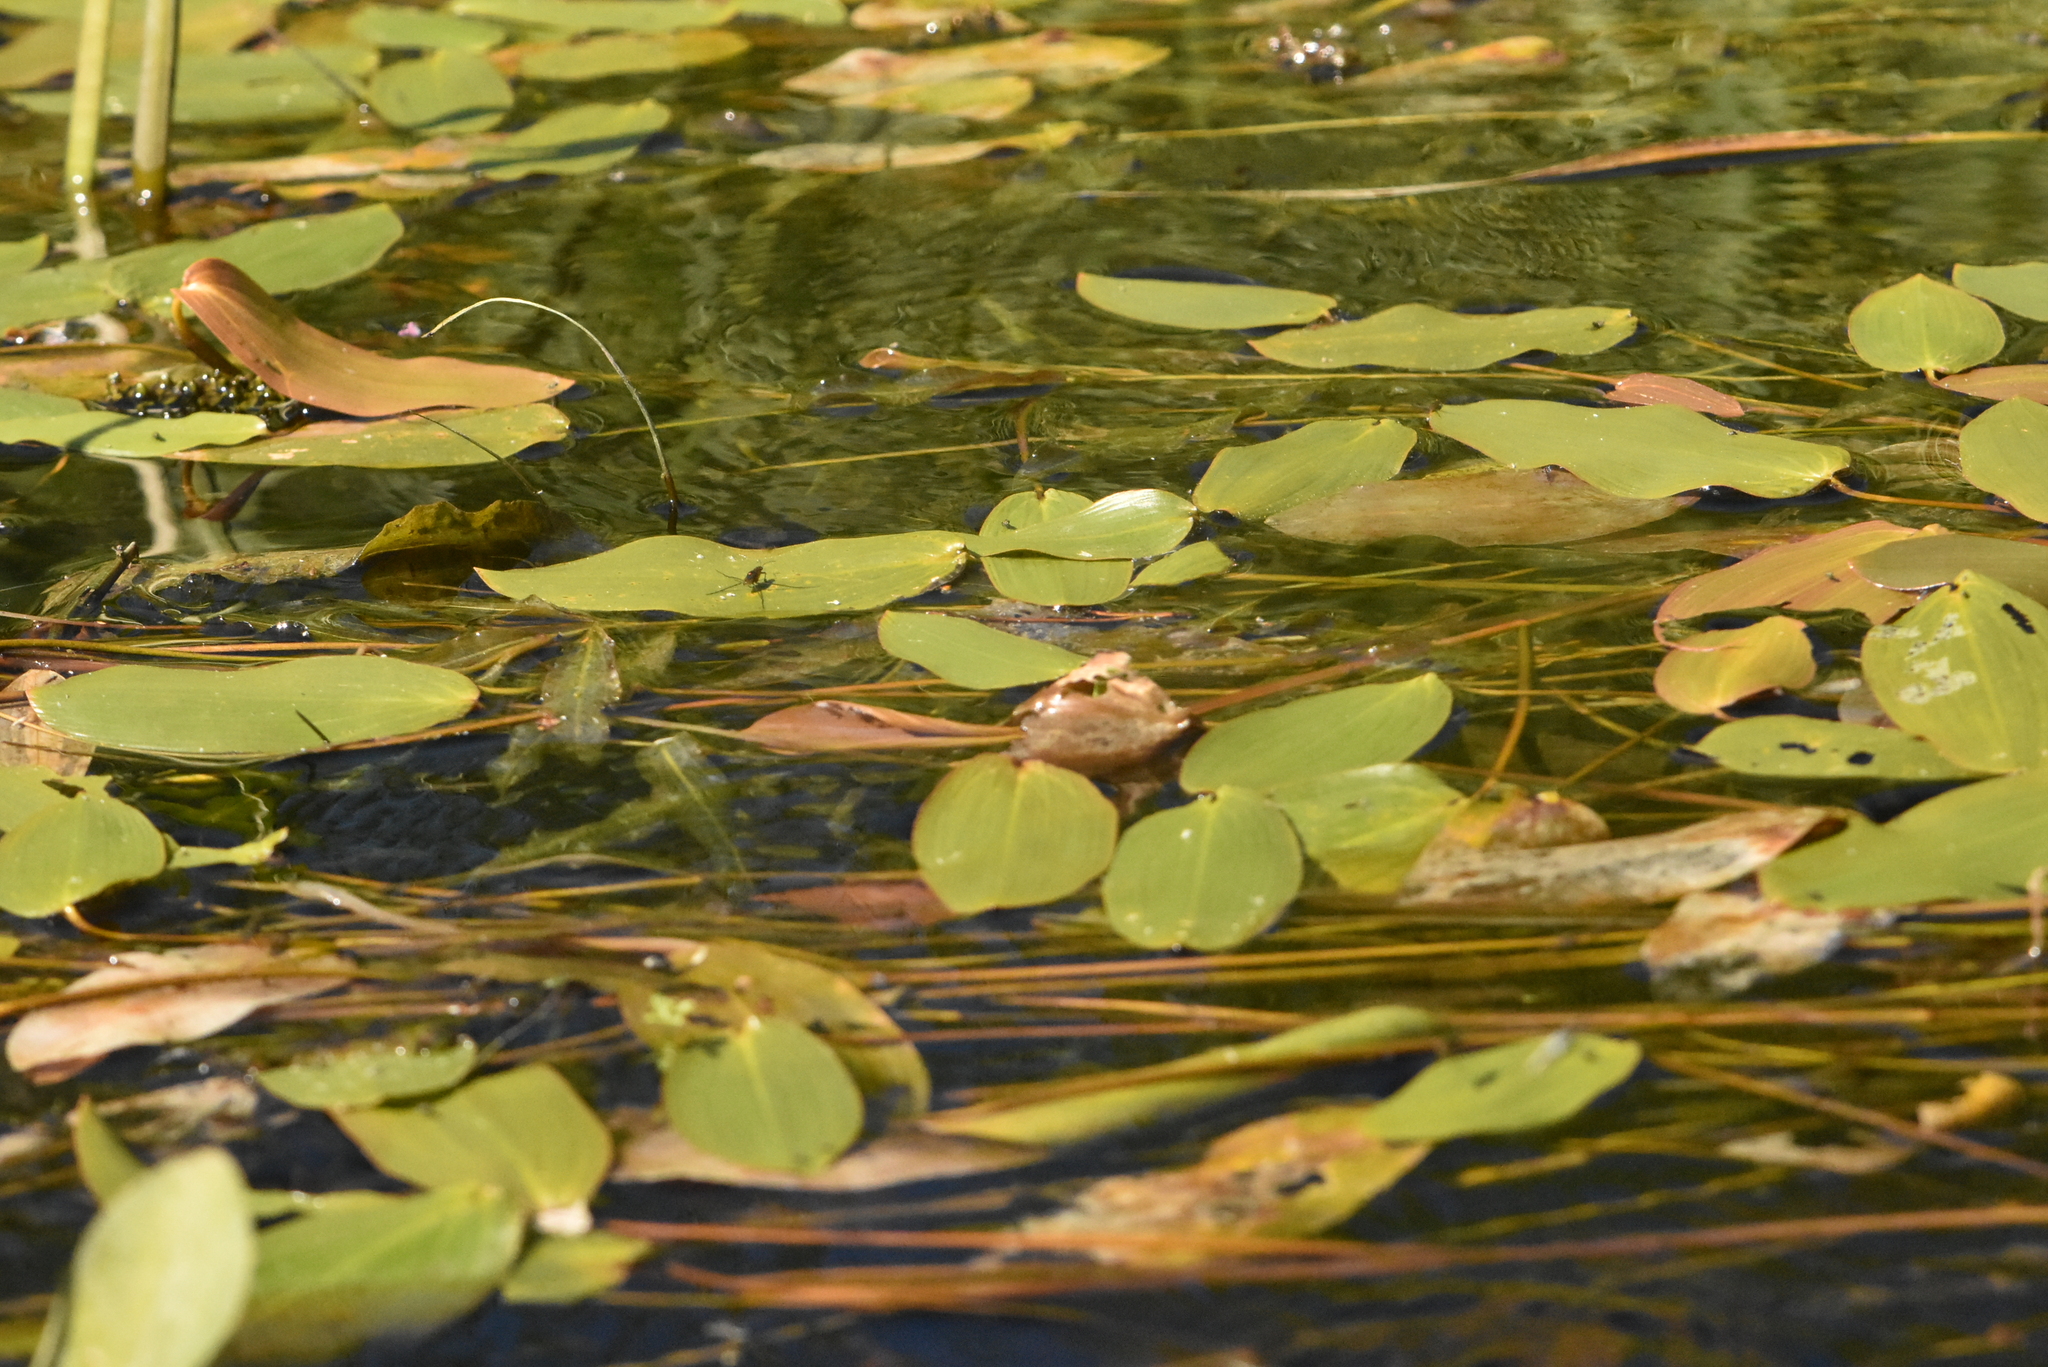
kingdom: Plantae
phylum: Tracheophyta
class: Liliopsida
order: Alismatales
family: Potamogetonaceae
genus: Potamogeton
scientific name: Potamogeton natans
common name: Broad-leaved pondweed
